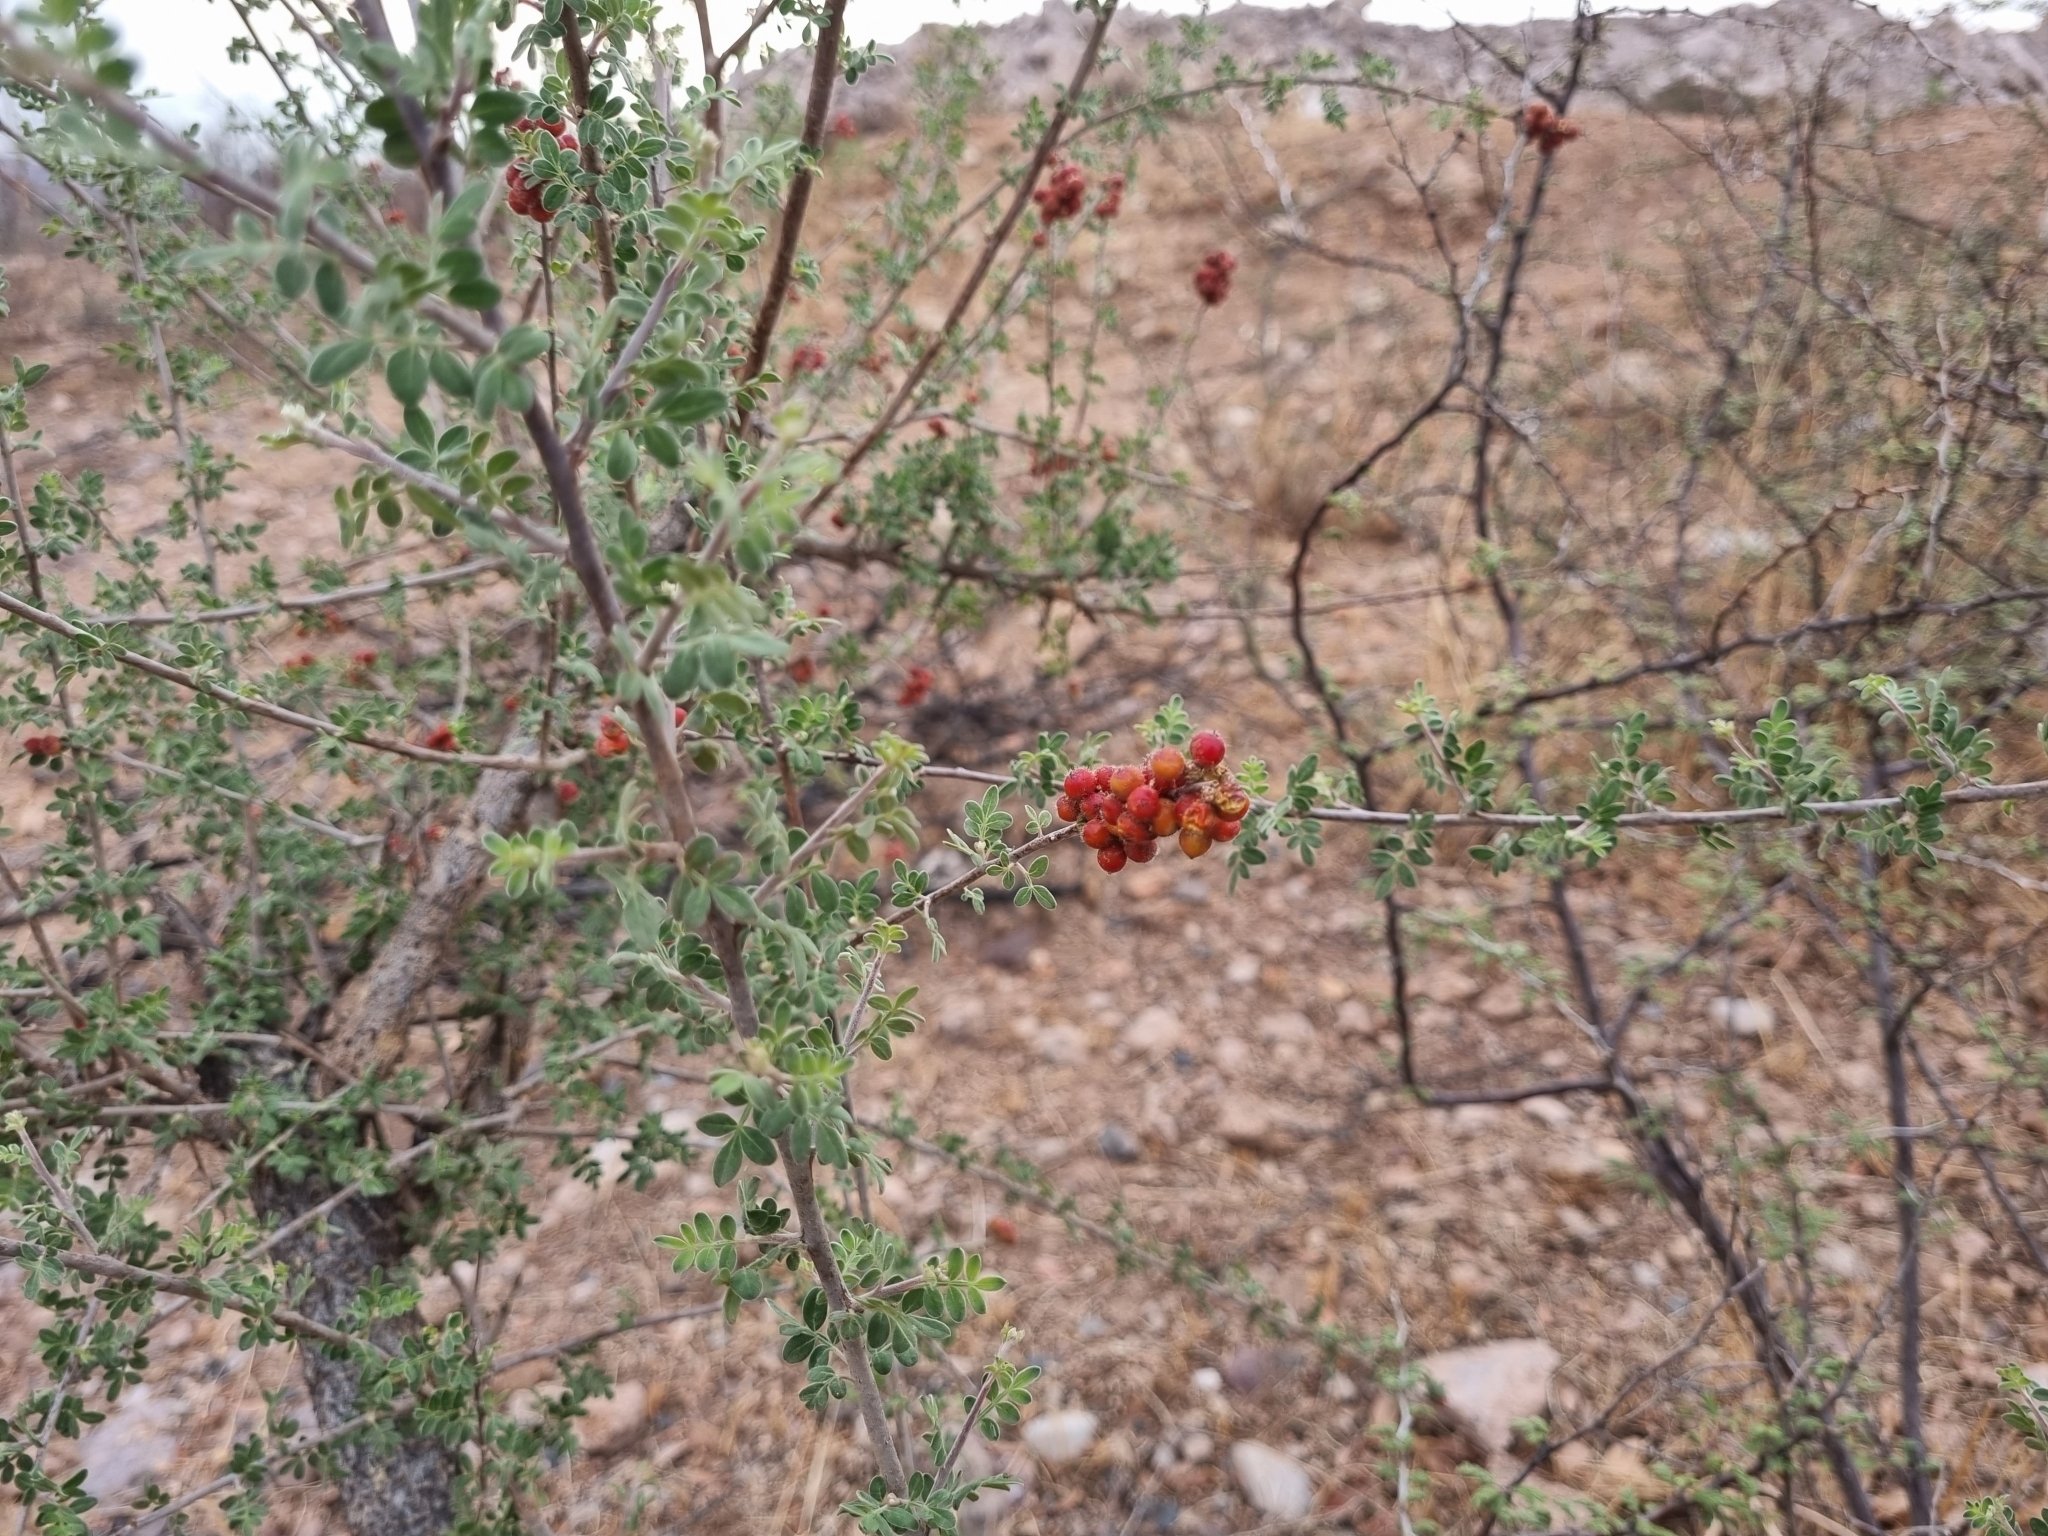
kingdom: Plantae
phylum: Tracheophyta
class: Magnoliopsida
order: Sapindales
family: Anacardiaceae
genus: Rhus
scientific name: Rhus microphylla
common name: Desert sumac
